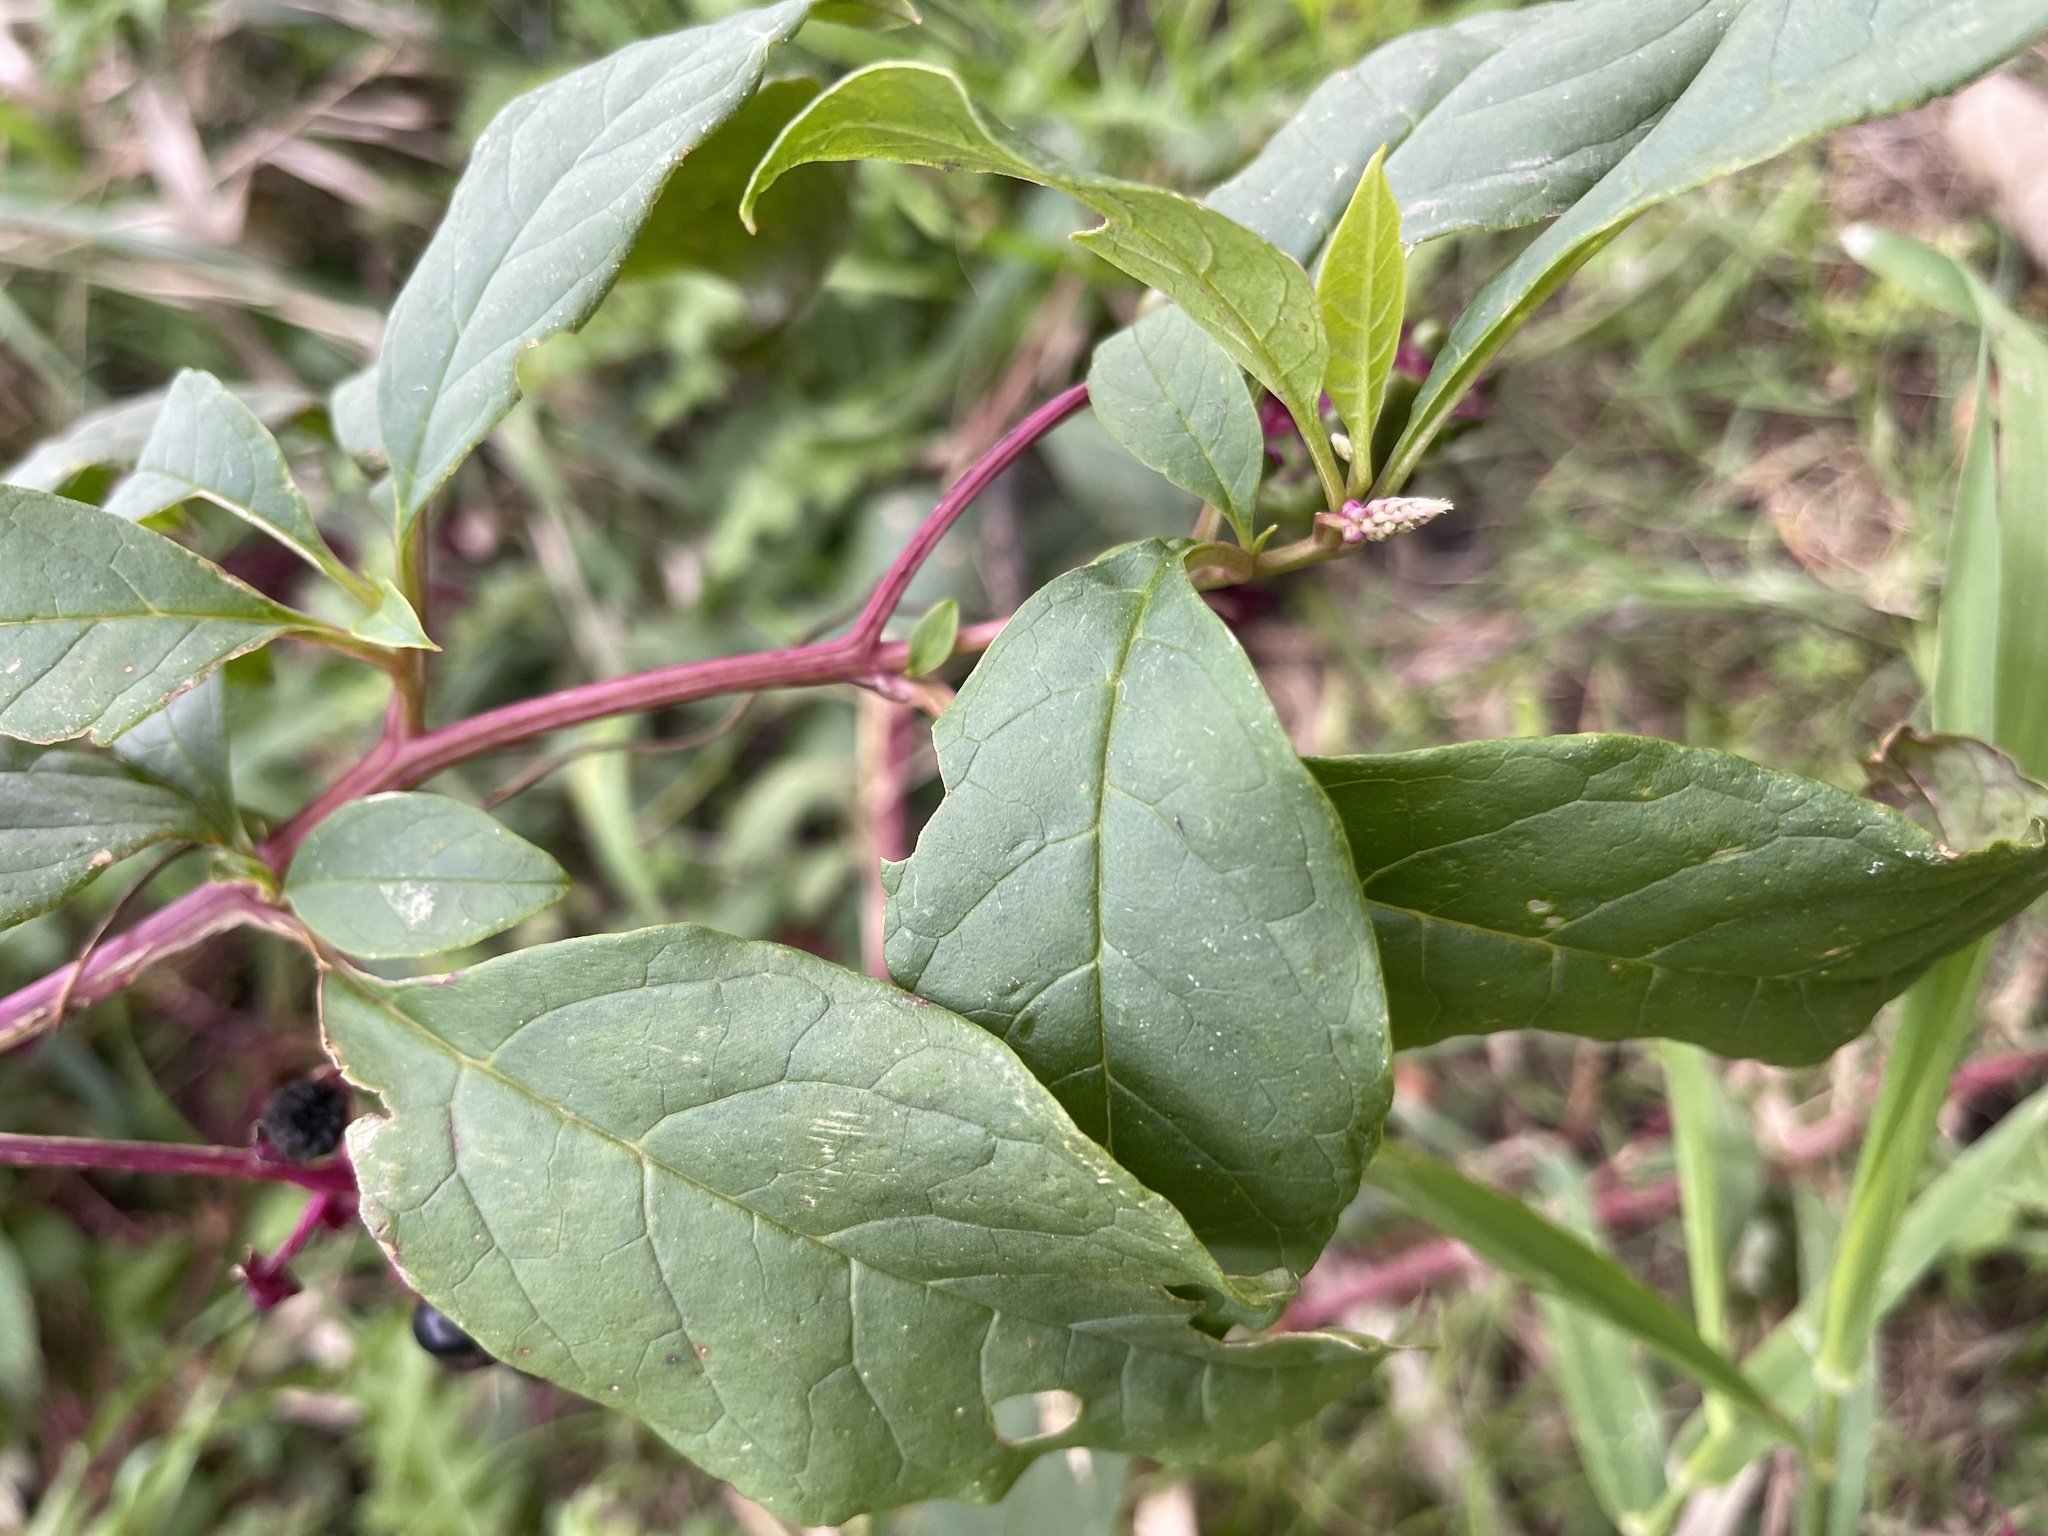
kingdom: Plantae
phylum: Tracheophyta
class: Magnoliopsida
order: Solanales
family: Solanaceae
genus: Solanum
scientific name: Solanum carolinense
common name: Horse-nettle
